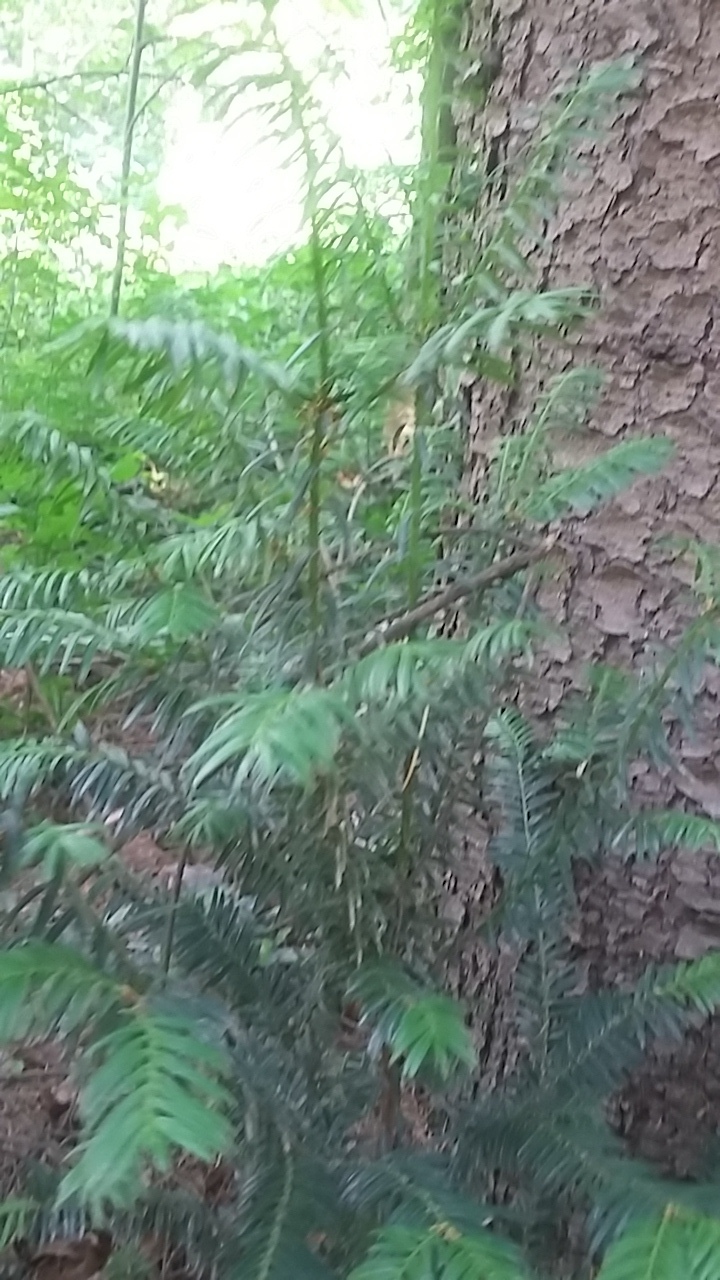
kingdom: Plantae
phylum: Tracheophyta
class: Pinopsida
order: Pinales
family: Taxaceae
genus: Taxus
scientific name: Taxus baccata
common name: Yew
